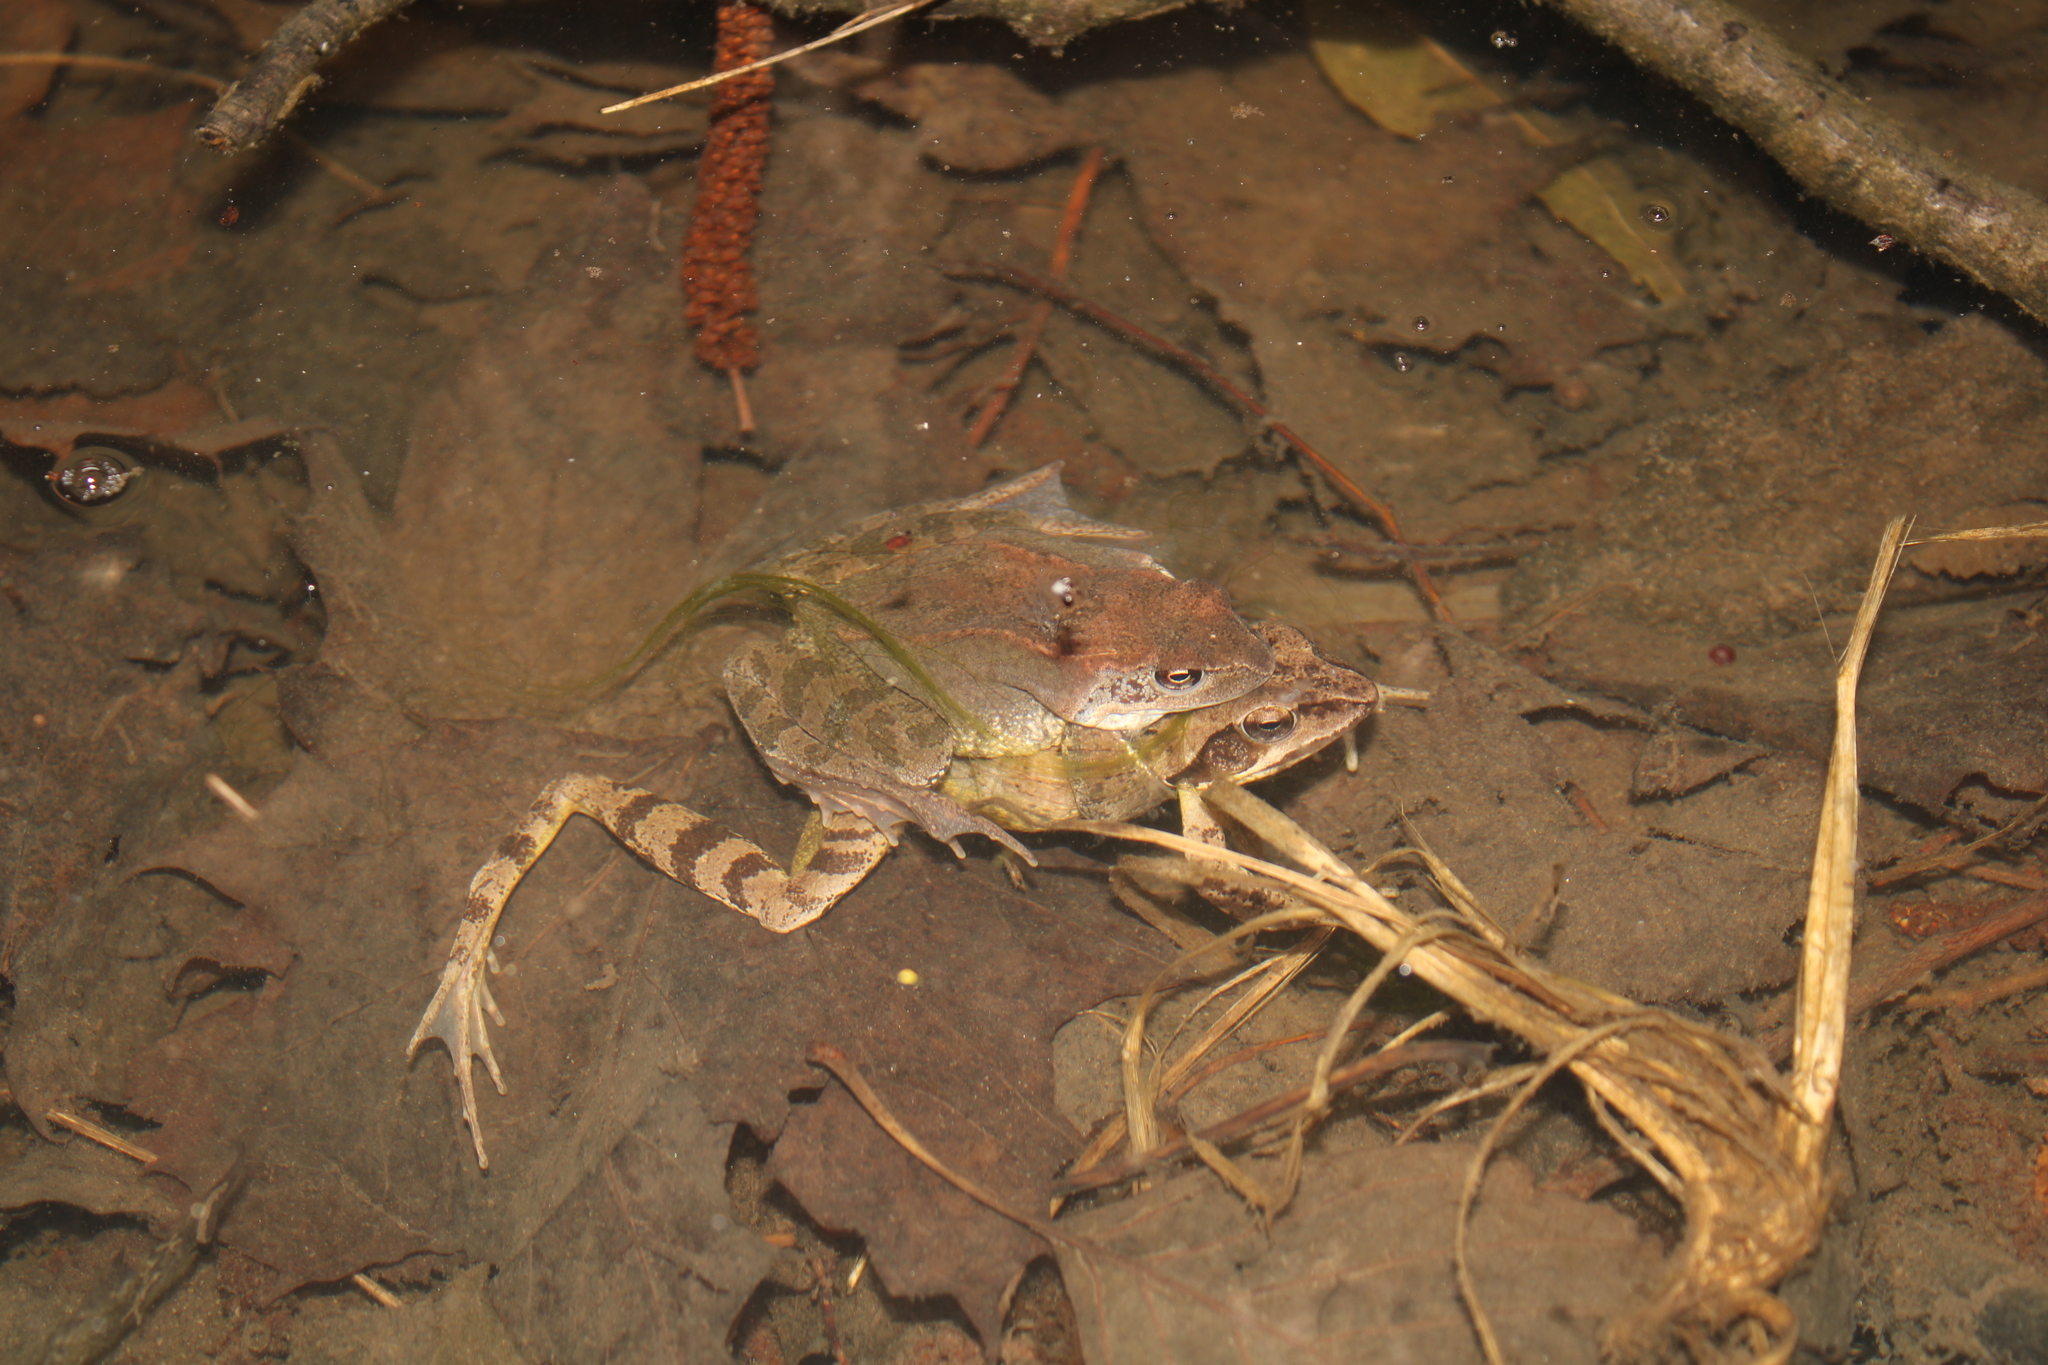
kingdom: Animalia
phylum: Chordata
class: Amphibia
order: Anura
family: Ranidae
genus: Rana
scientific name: Rana temporaria
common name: Common frog
